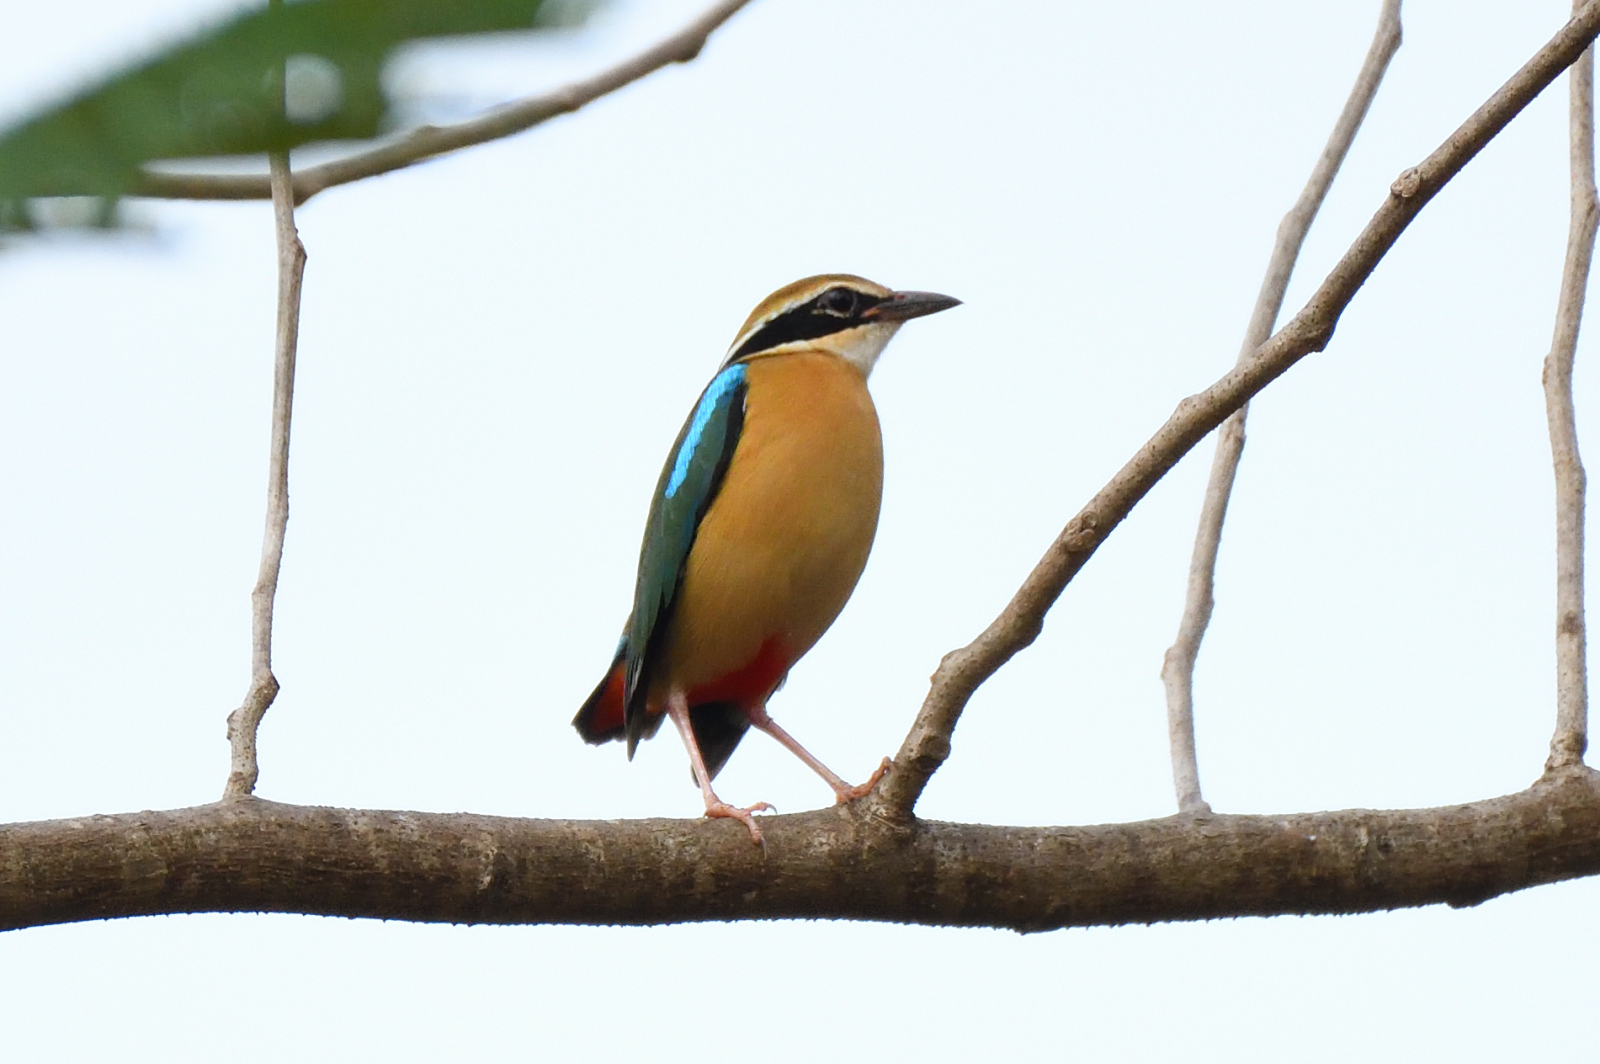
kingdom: Animalia
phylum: Chordata
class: Aves
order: Passeriformes
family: Pittidae
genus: Pitta
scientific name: Pitta brachyura
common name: Indian pitta
